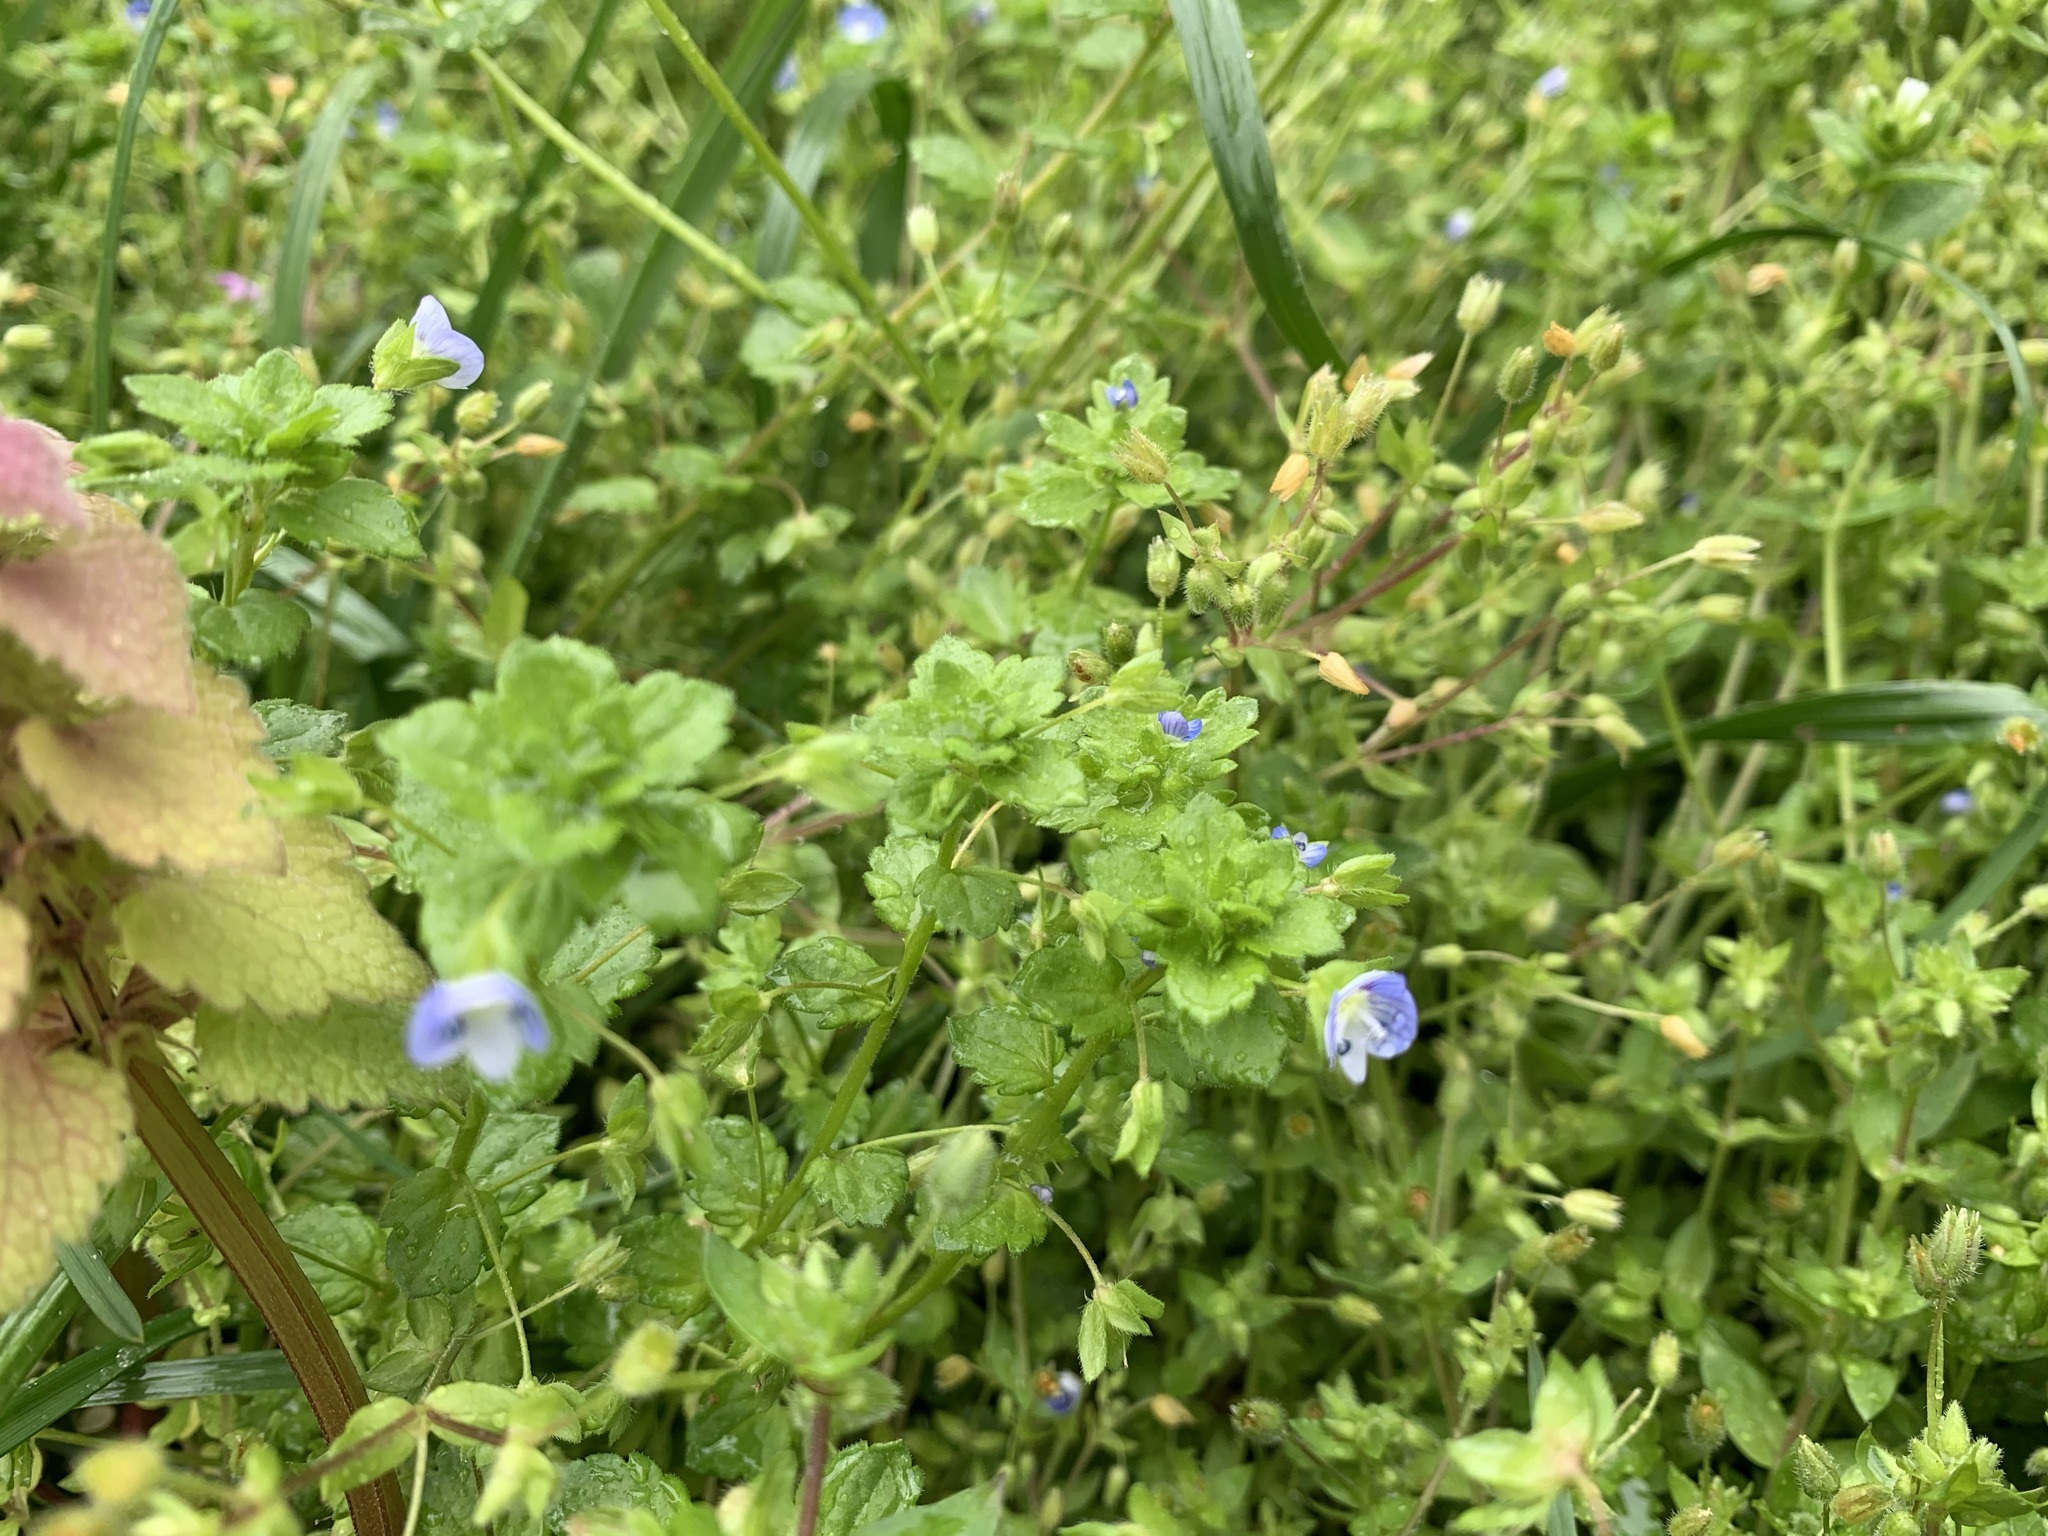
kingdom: Plantae
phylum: Tracheophyta
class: Magnoliopsida
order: Lamiales
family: Plantaginaceae
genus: Veronica
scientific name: Veronica persica
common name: Common field-speedwell
